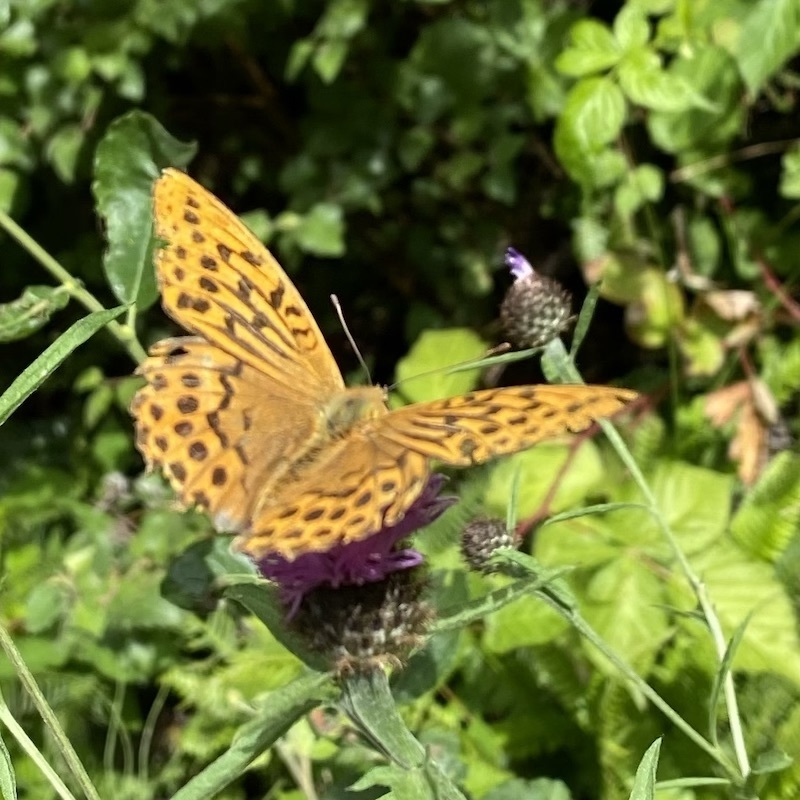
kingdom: Animalia
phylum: Arthropoda
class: Insecta
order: Lepidoptera
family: Nymphalidae
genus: Argynnis
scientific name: Argynnis paphia
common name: Silver-washed fritillary
